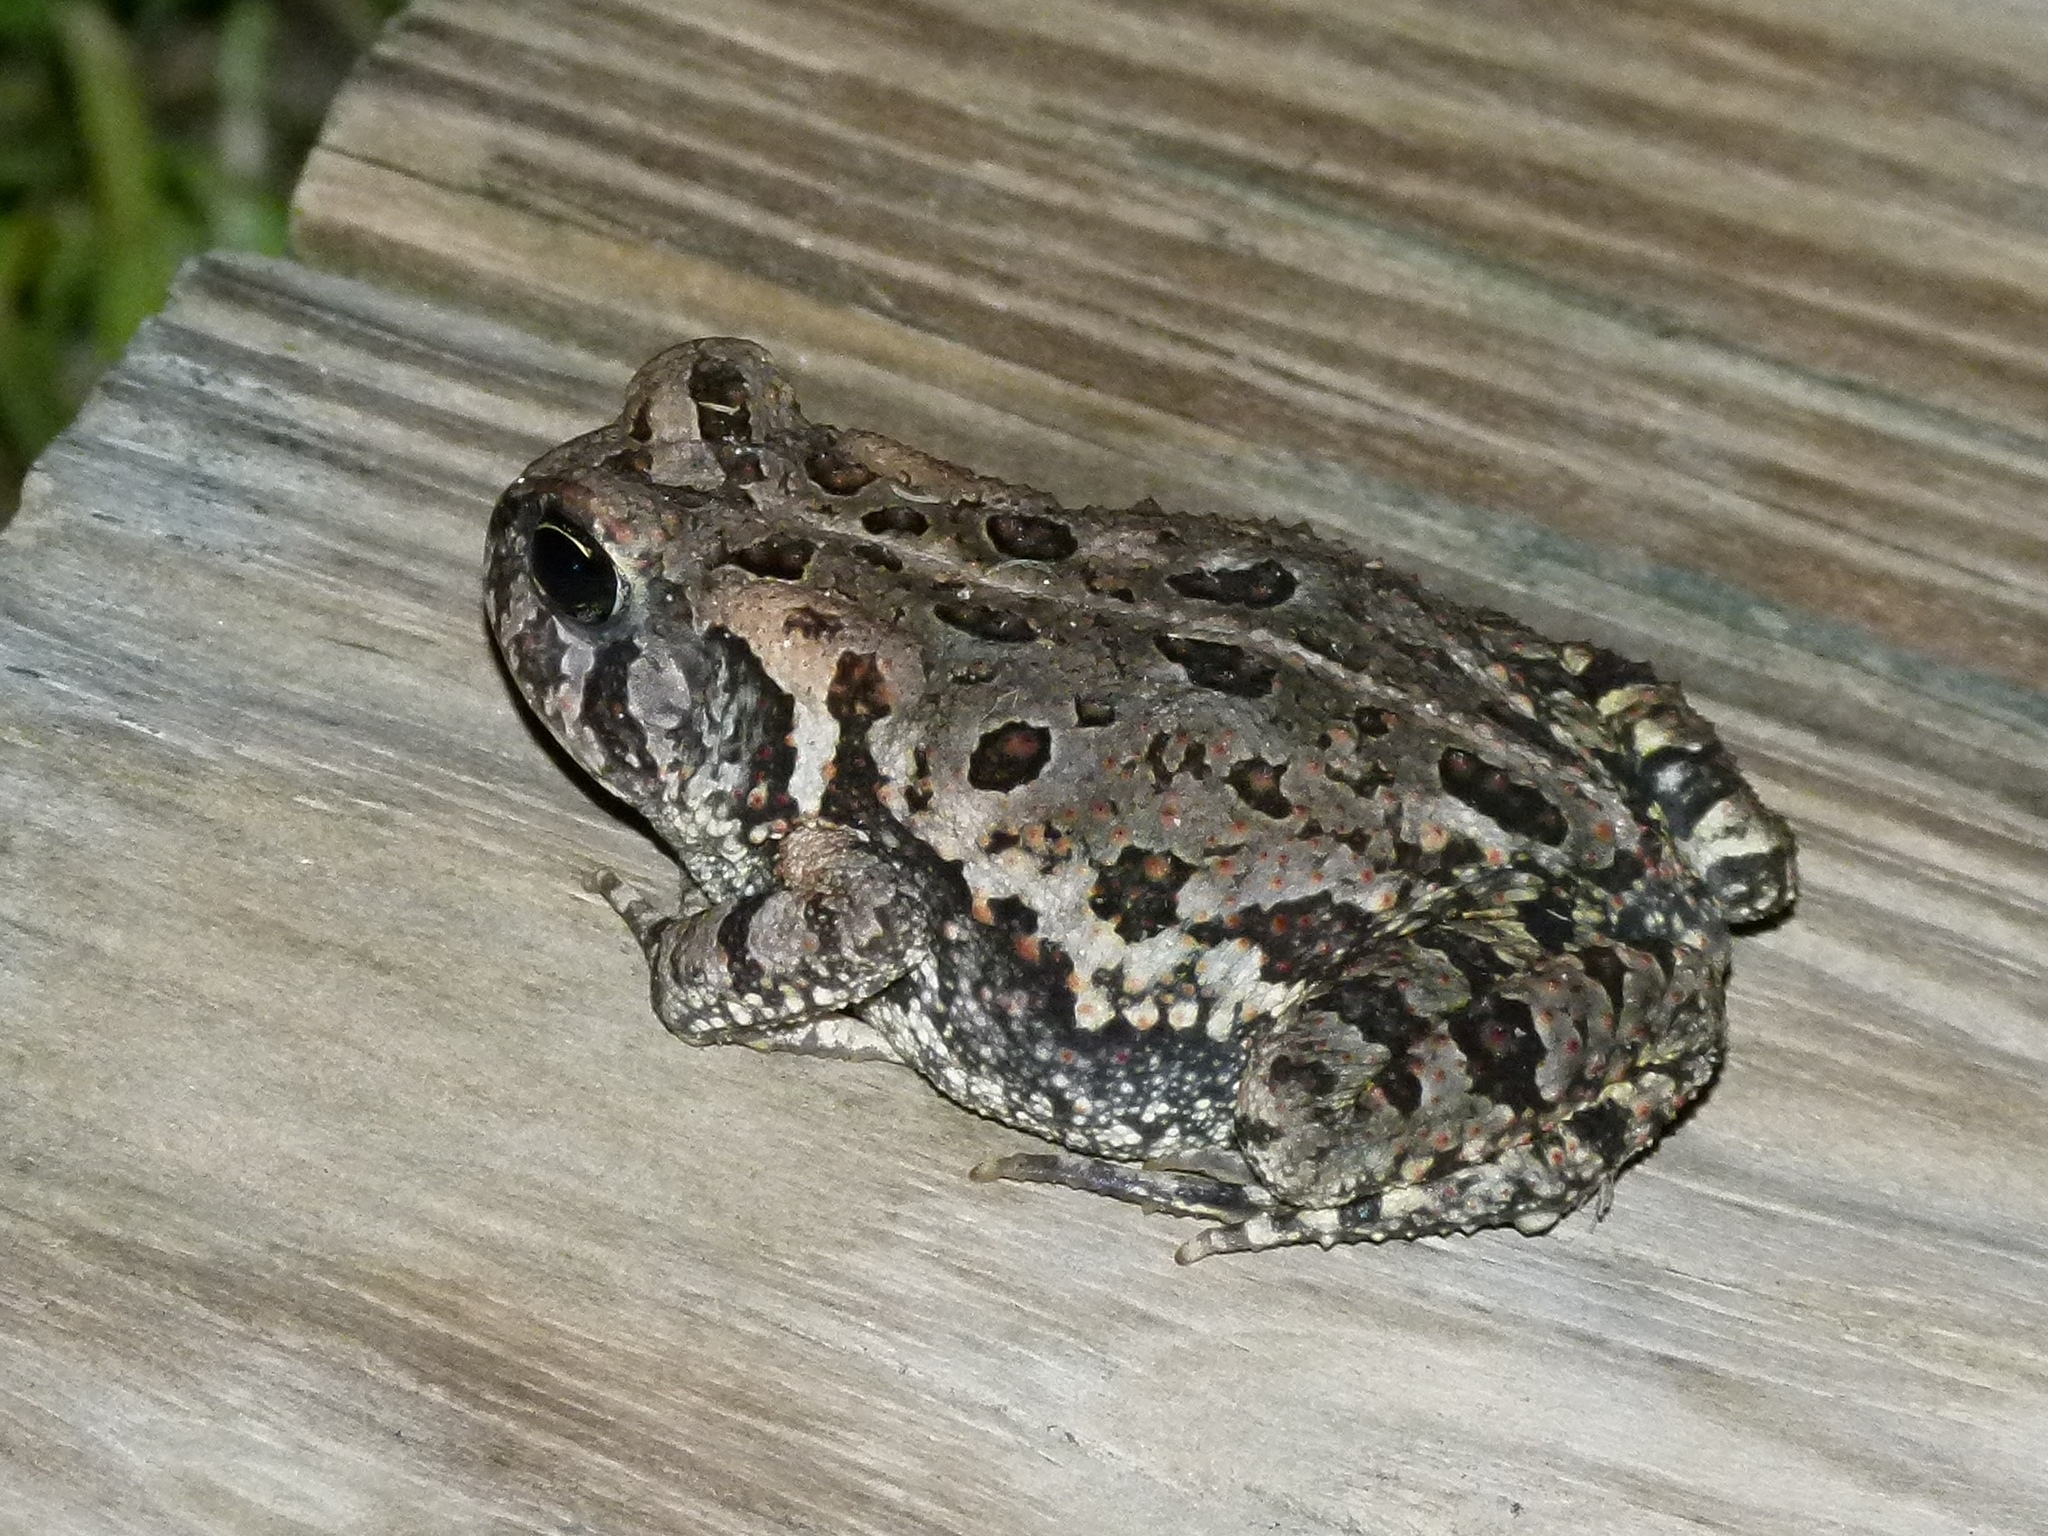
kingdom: Animalia
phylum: Chordata
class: Amphibia
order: Anura
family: Bufonidae
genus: Anaxyrus
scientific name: Anaxyrus fowleri
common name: Fowler's toad
